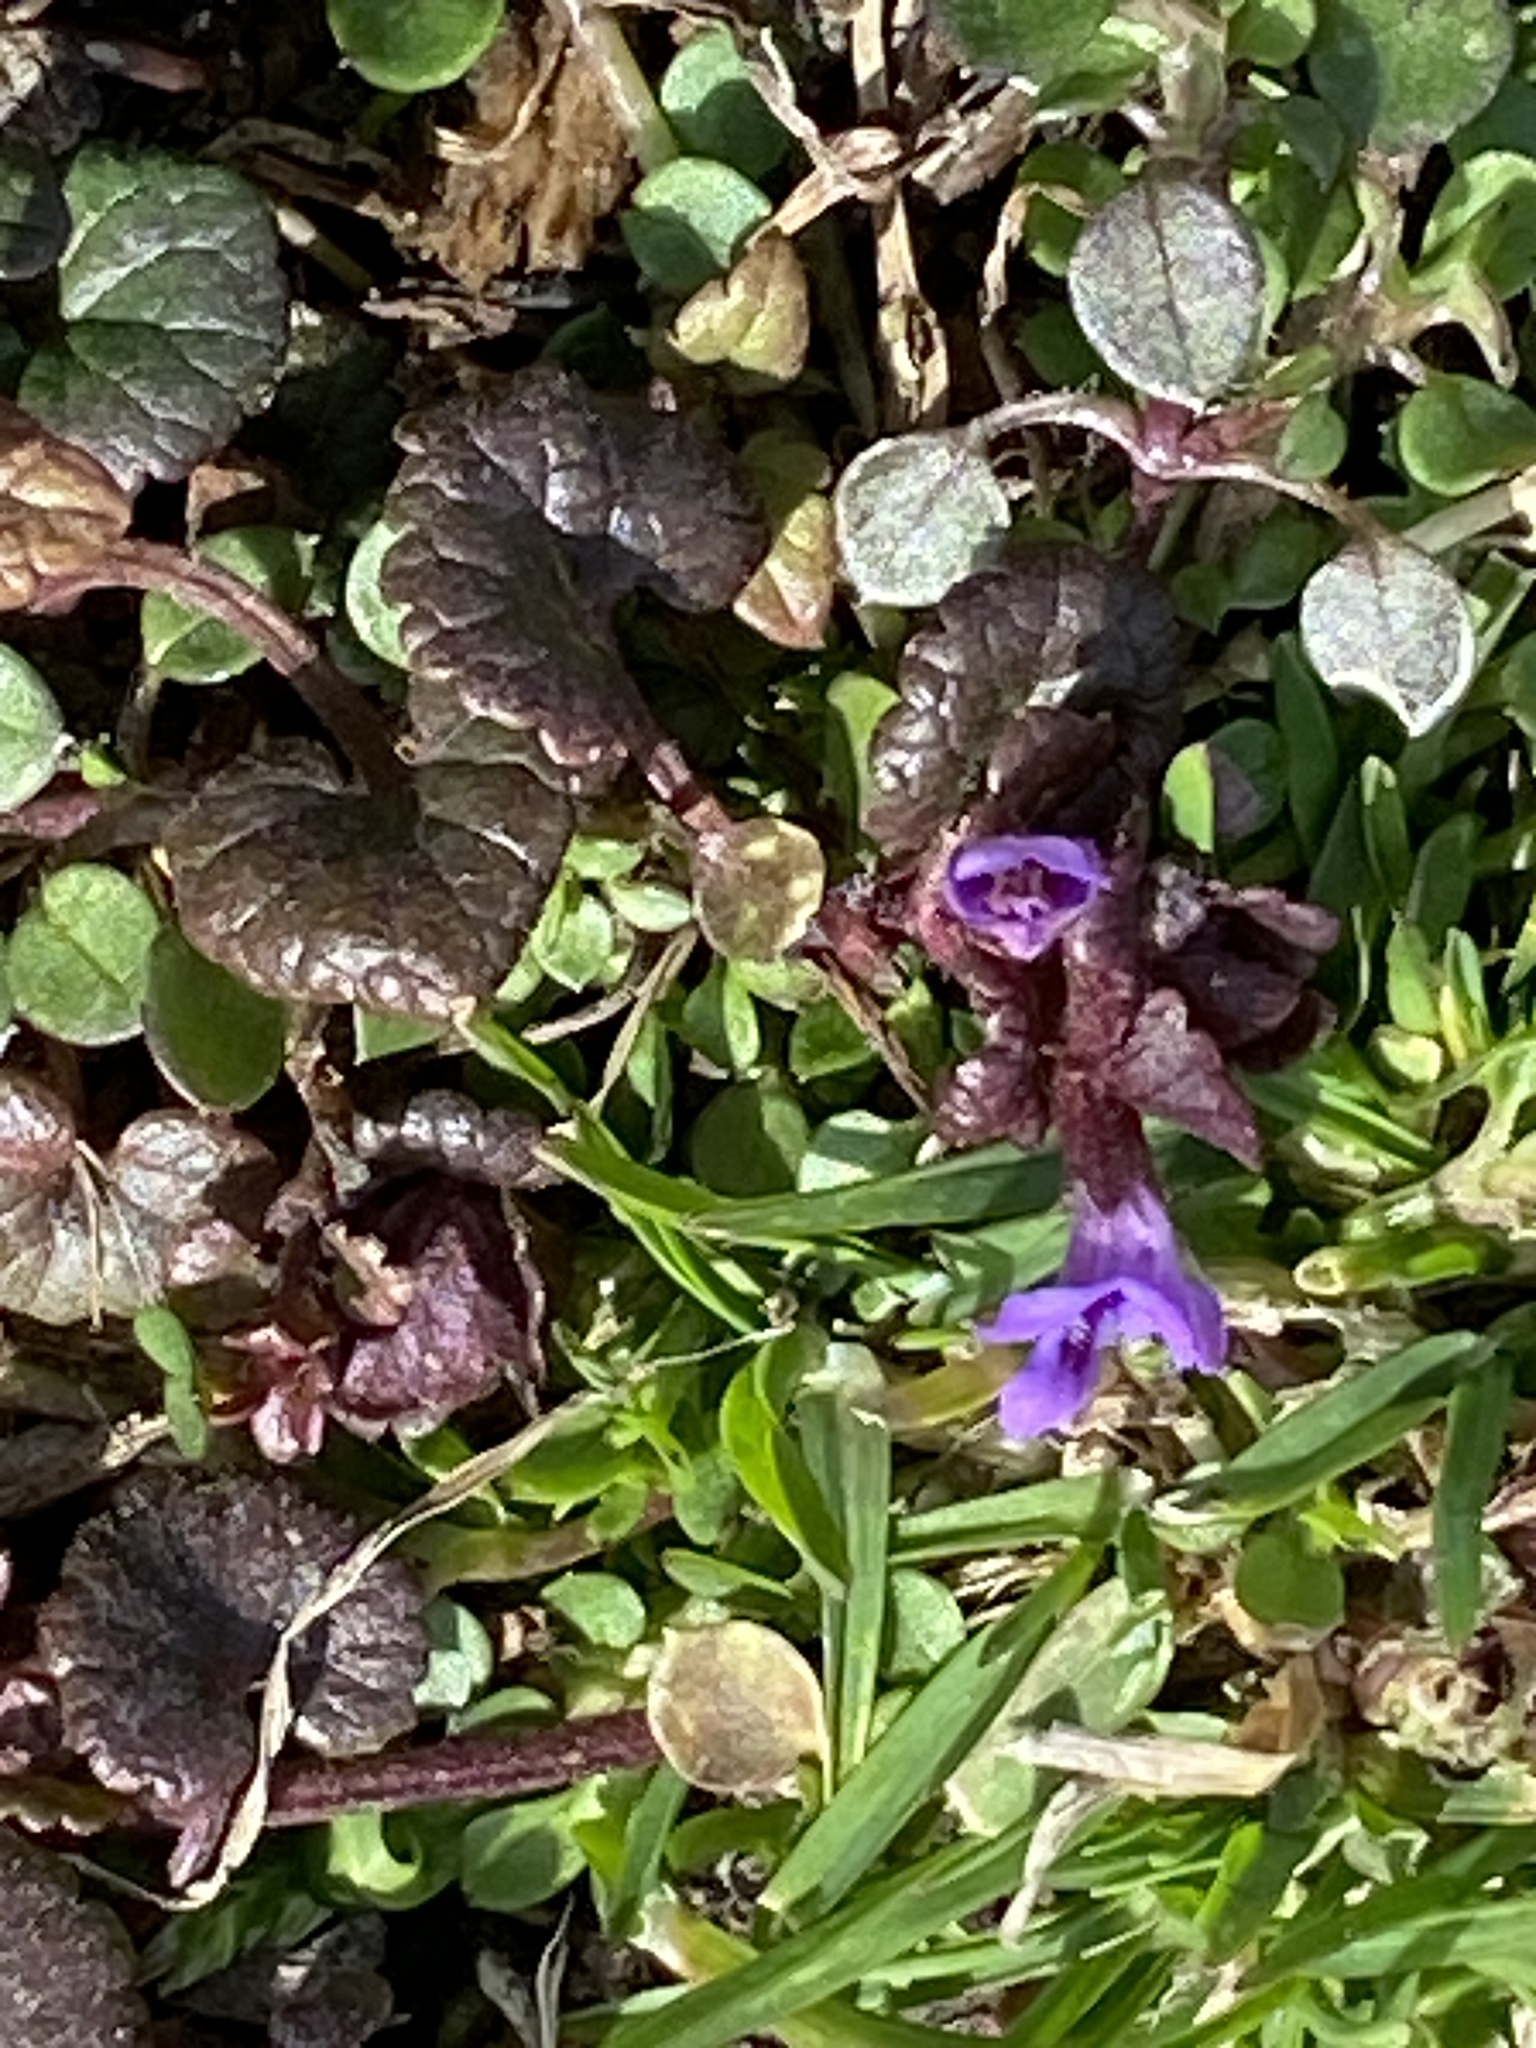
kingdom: Plantae
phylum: Tracheophyta
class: Magnoliopsida
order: Lamiales
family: Lamiaceae
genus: Glechoma
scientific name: Glechoma hederacea
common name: Ground ivy
